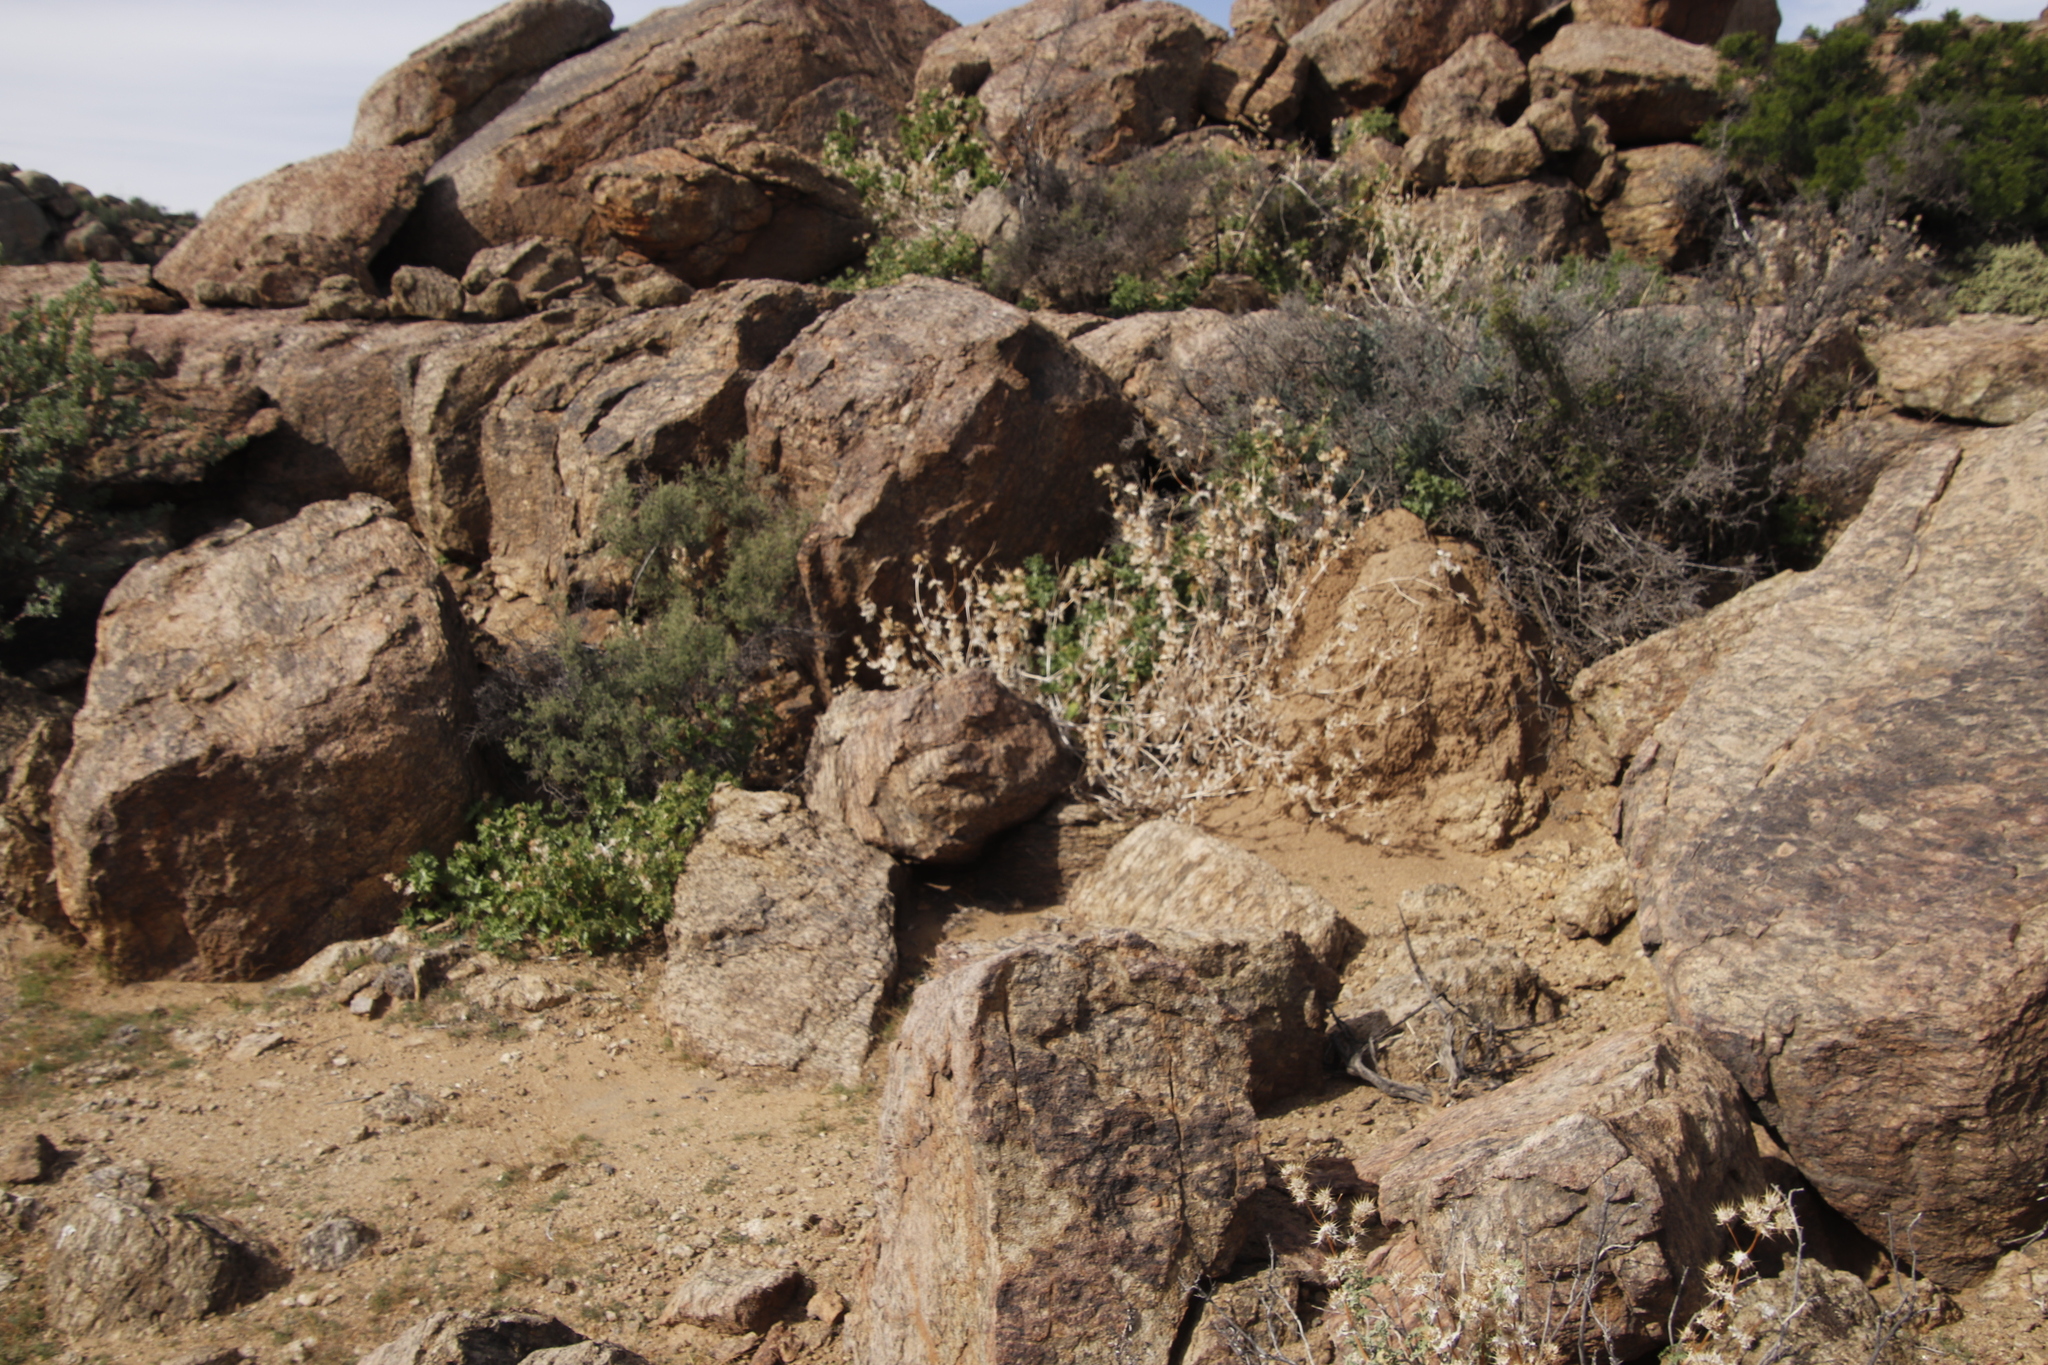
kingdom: Plantae
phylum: Tracheophyta
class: Magnoliopsida
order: Asterales
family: Asteraceae
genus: Berkheya
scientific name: Berkheya spinosissima
